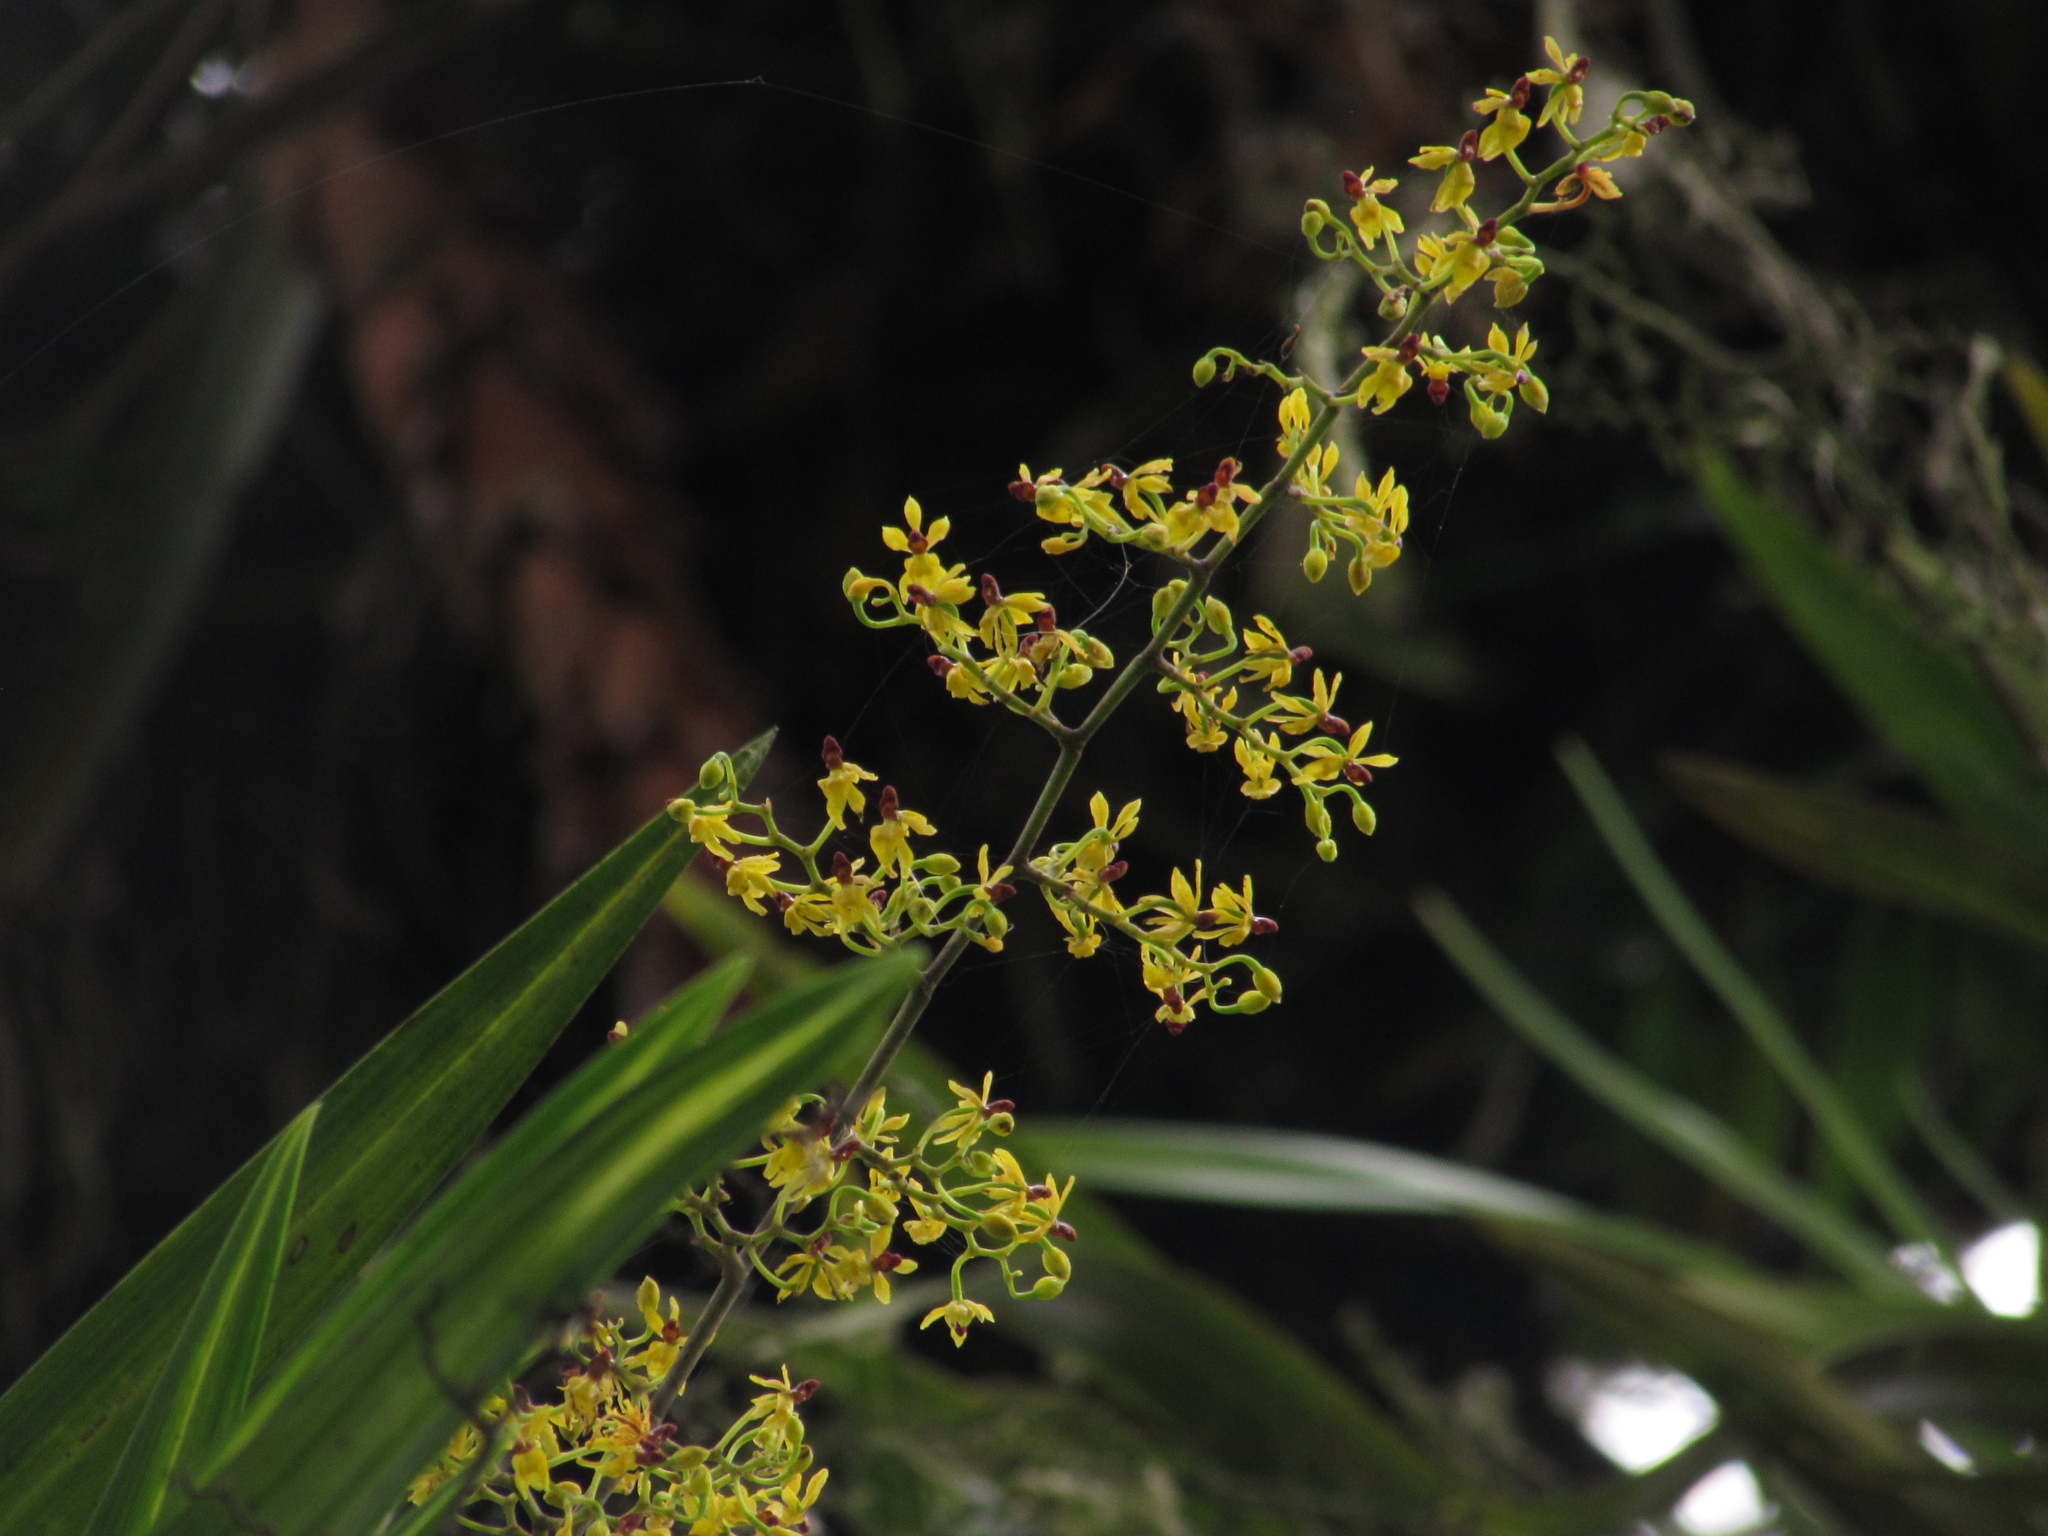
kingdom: Plantae
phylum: Tracheophyta
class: Liliopsida
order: Asparagales
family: Orchidaceae
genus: Cyrtochilum
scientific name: Cyrtochilum murinum
